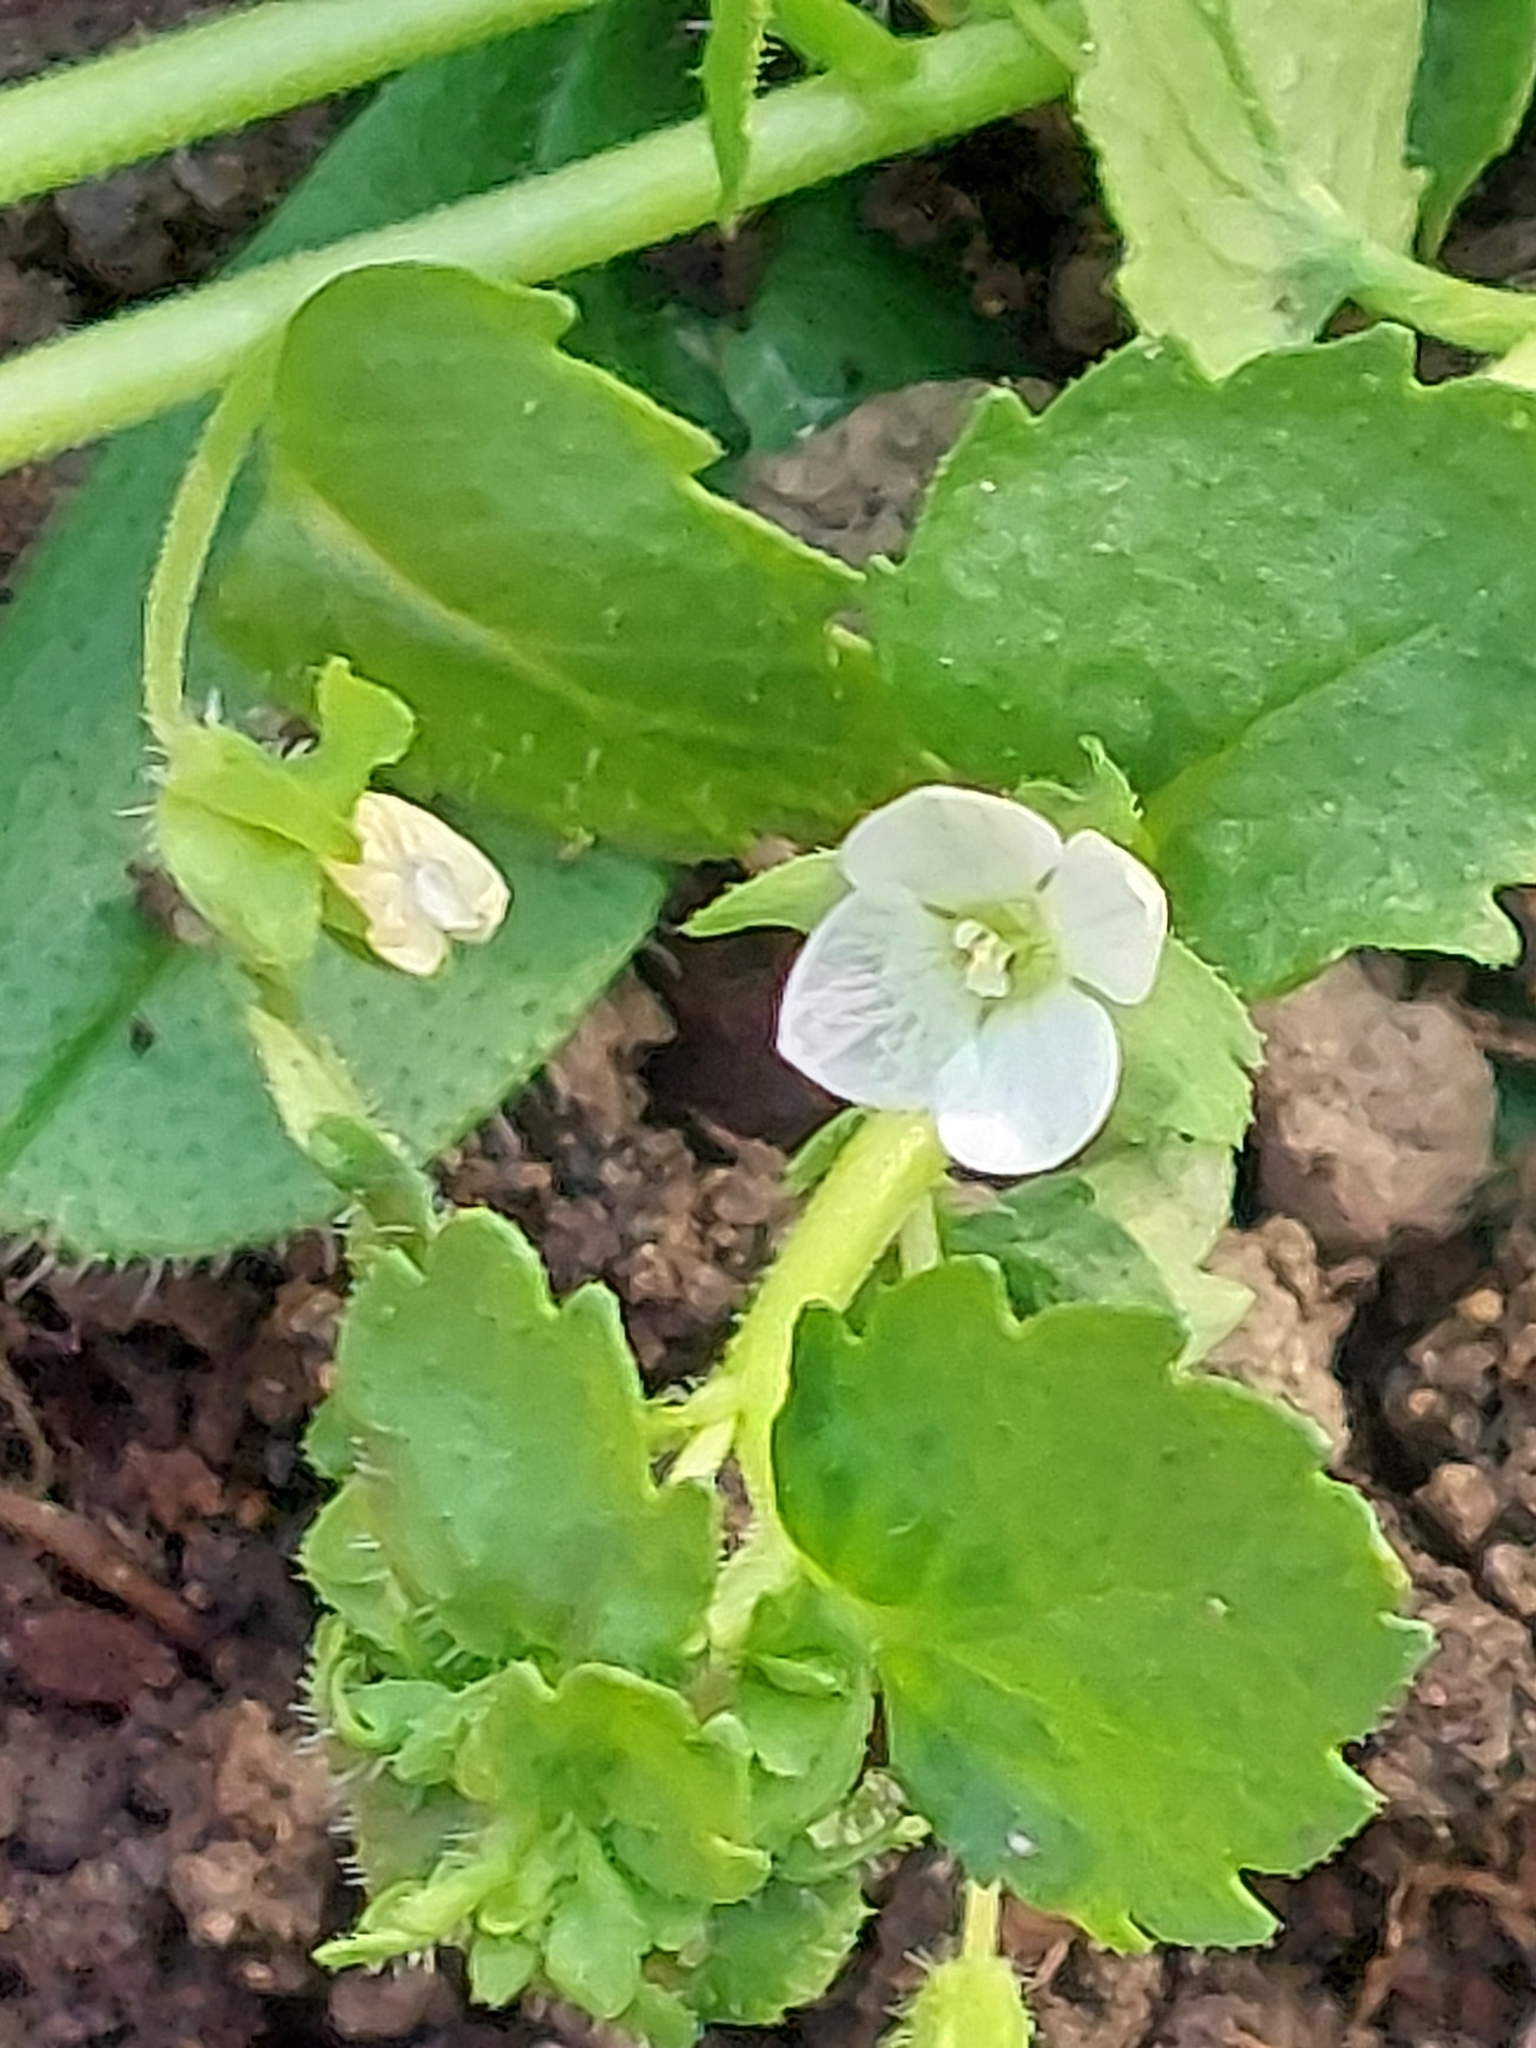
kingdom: Plantae
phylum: Tracheophyta
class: Magnoliopsida
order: Lamiales
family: Plantaginaceae
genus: Veronica
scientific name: Veronica agrestis
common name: Green field-speedwell
